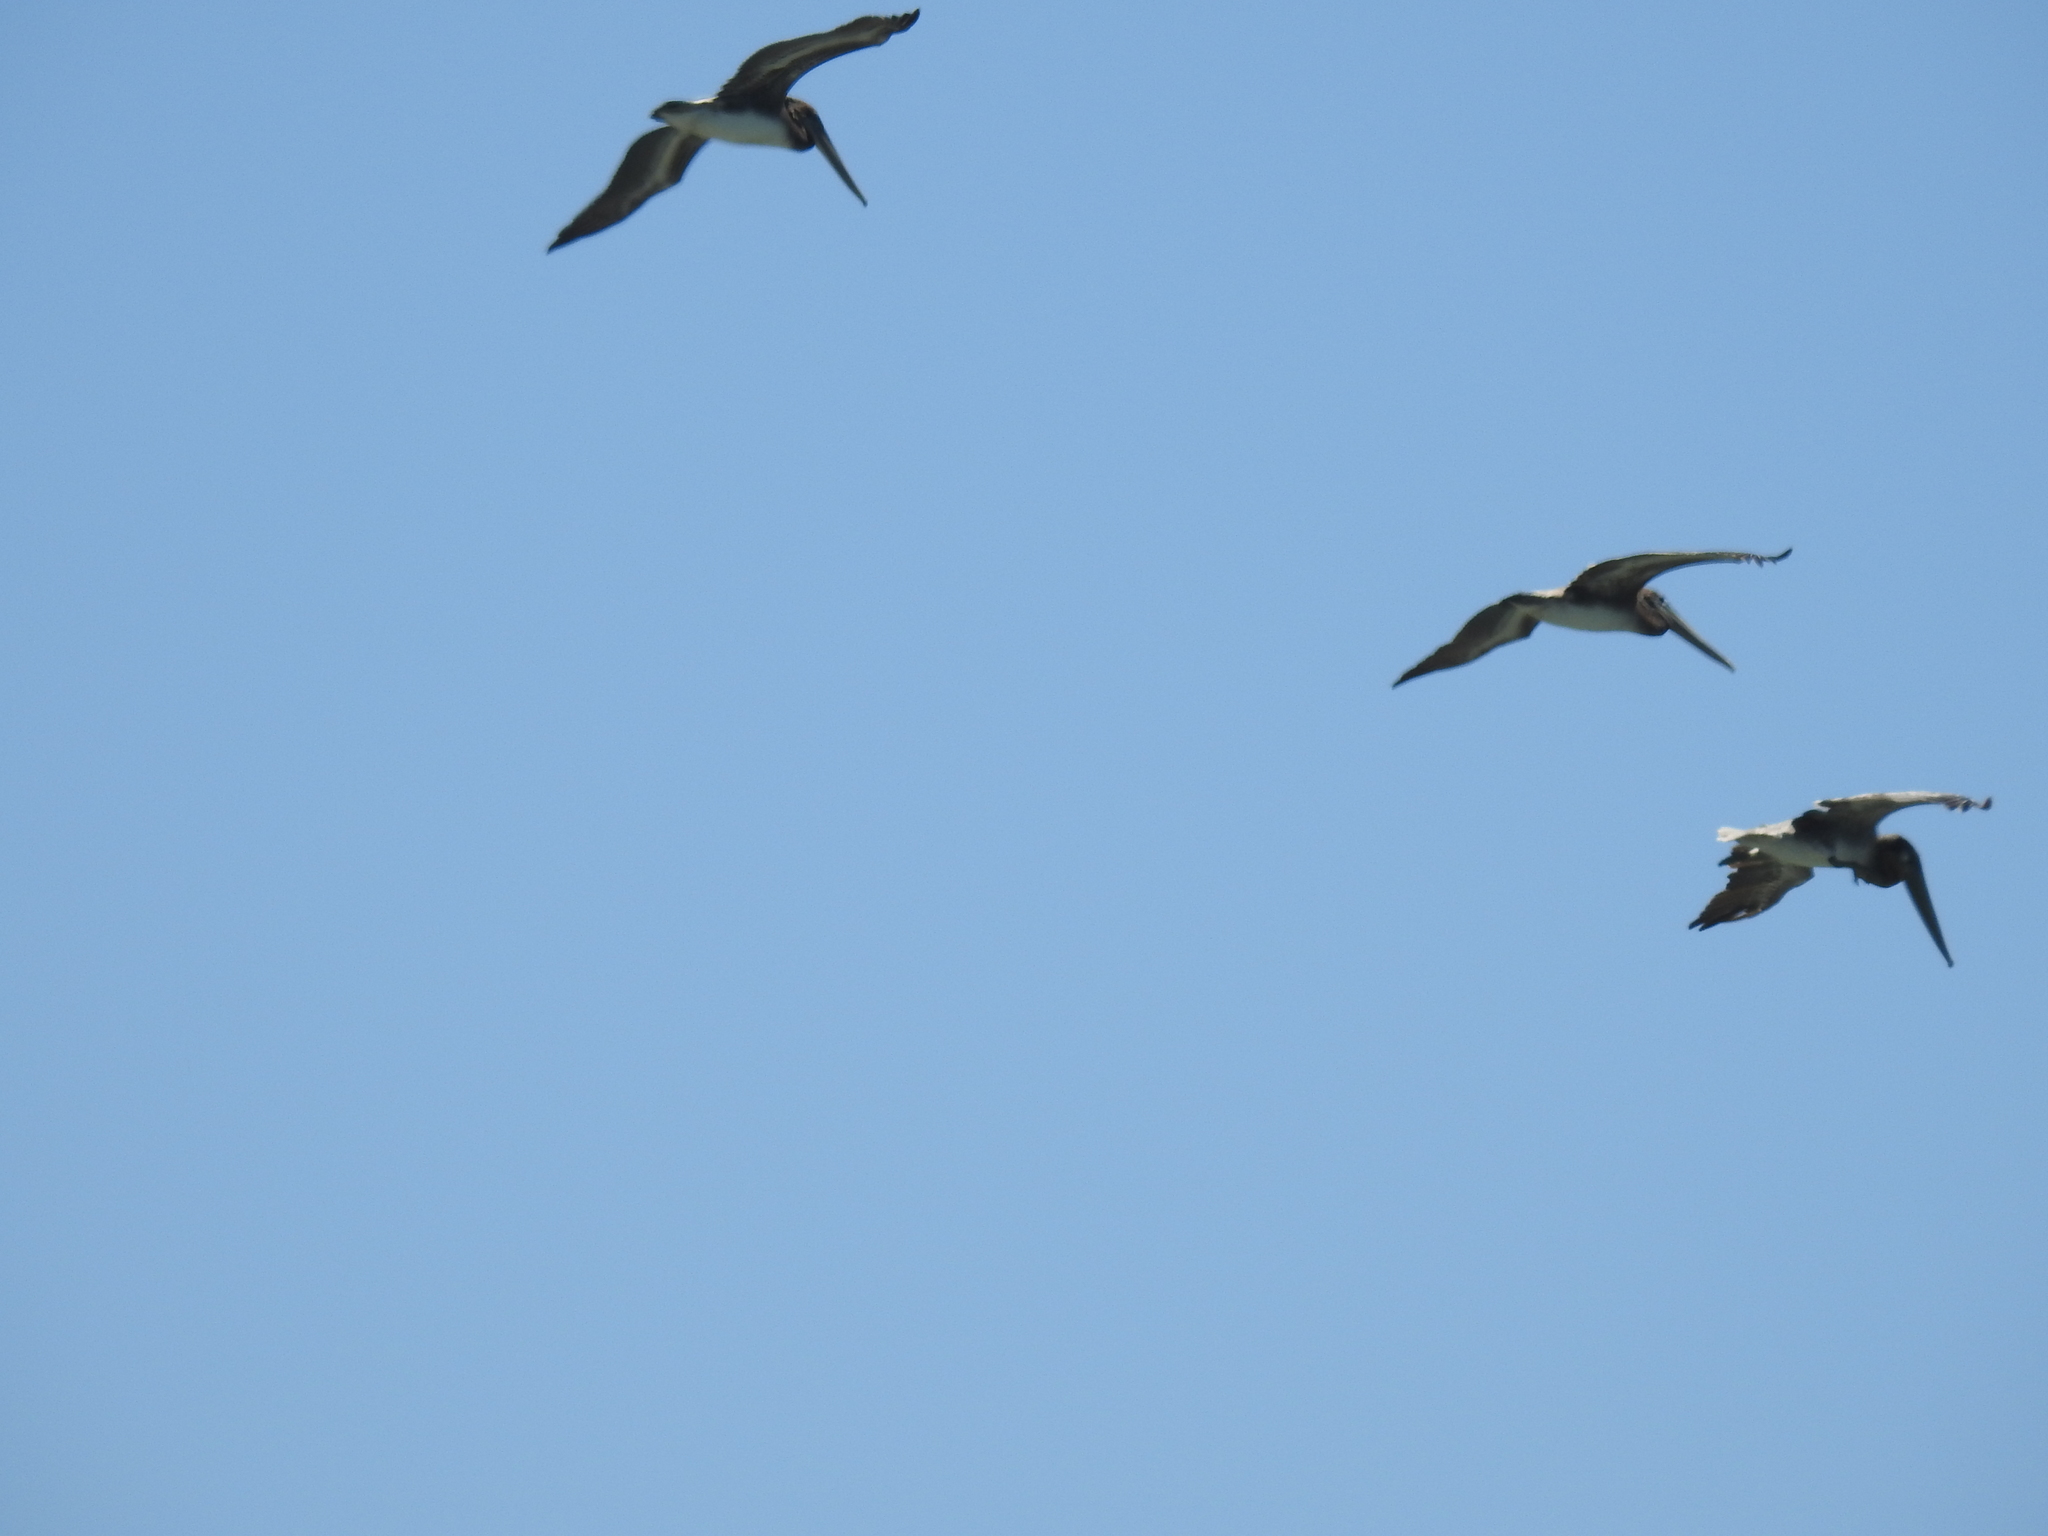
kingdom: Animalia
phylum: Chordata
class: Aves
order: Pelecaniformes
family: Pelecanidae
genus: Pelecanus
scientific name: Pelecanus erythrorhynchos
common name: American white pelican
